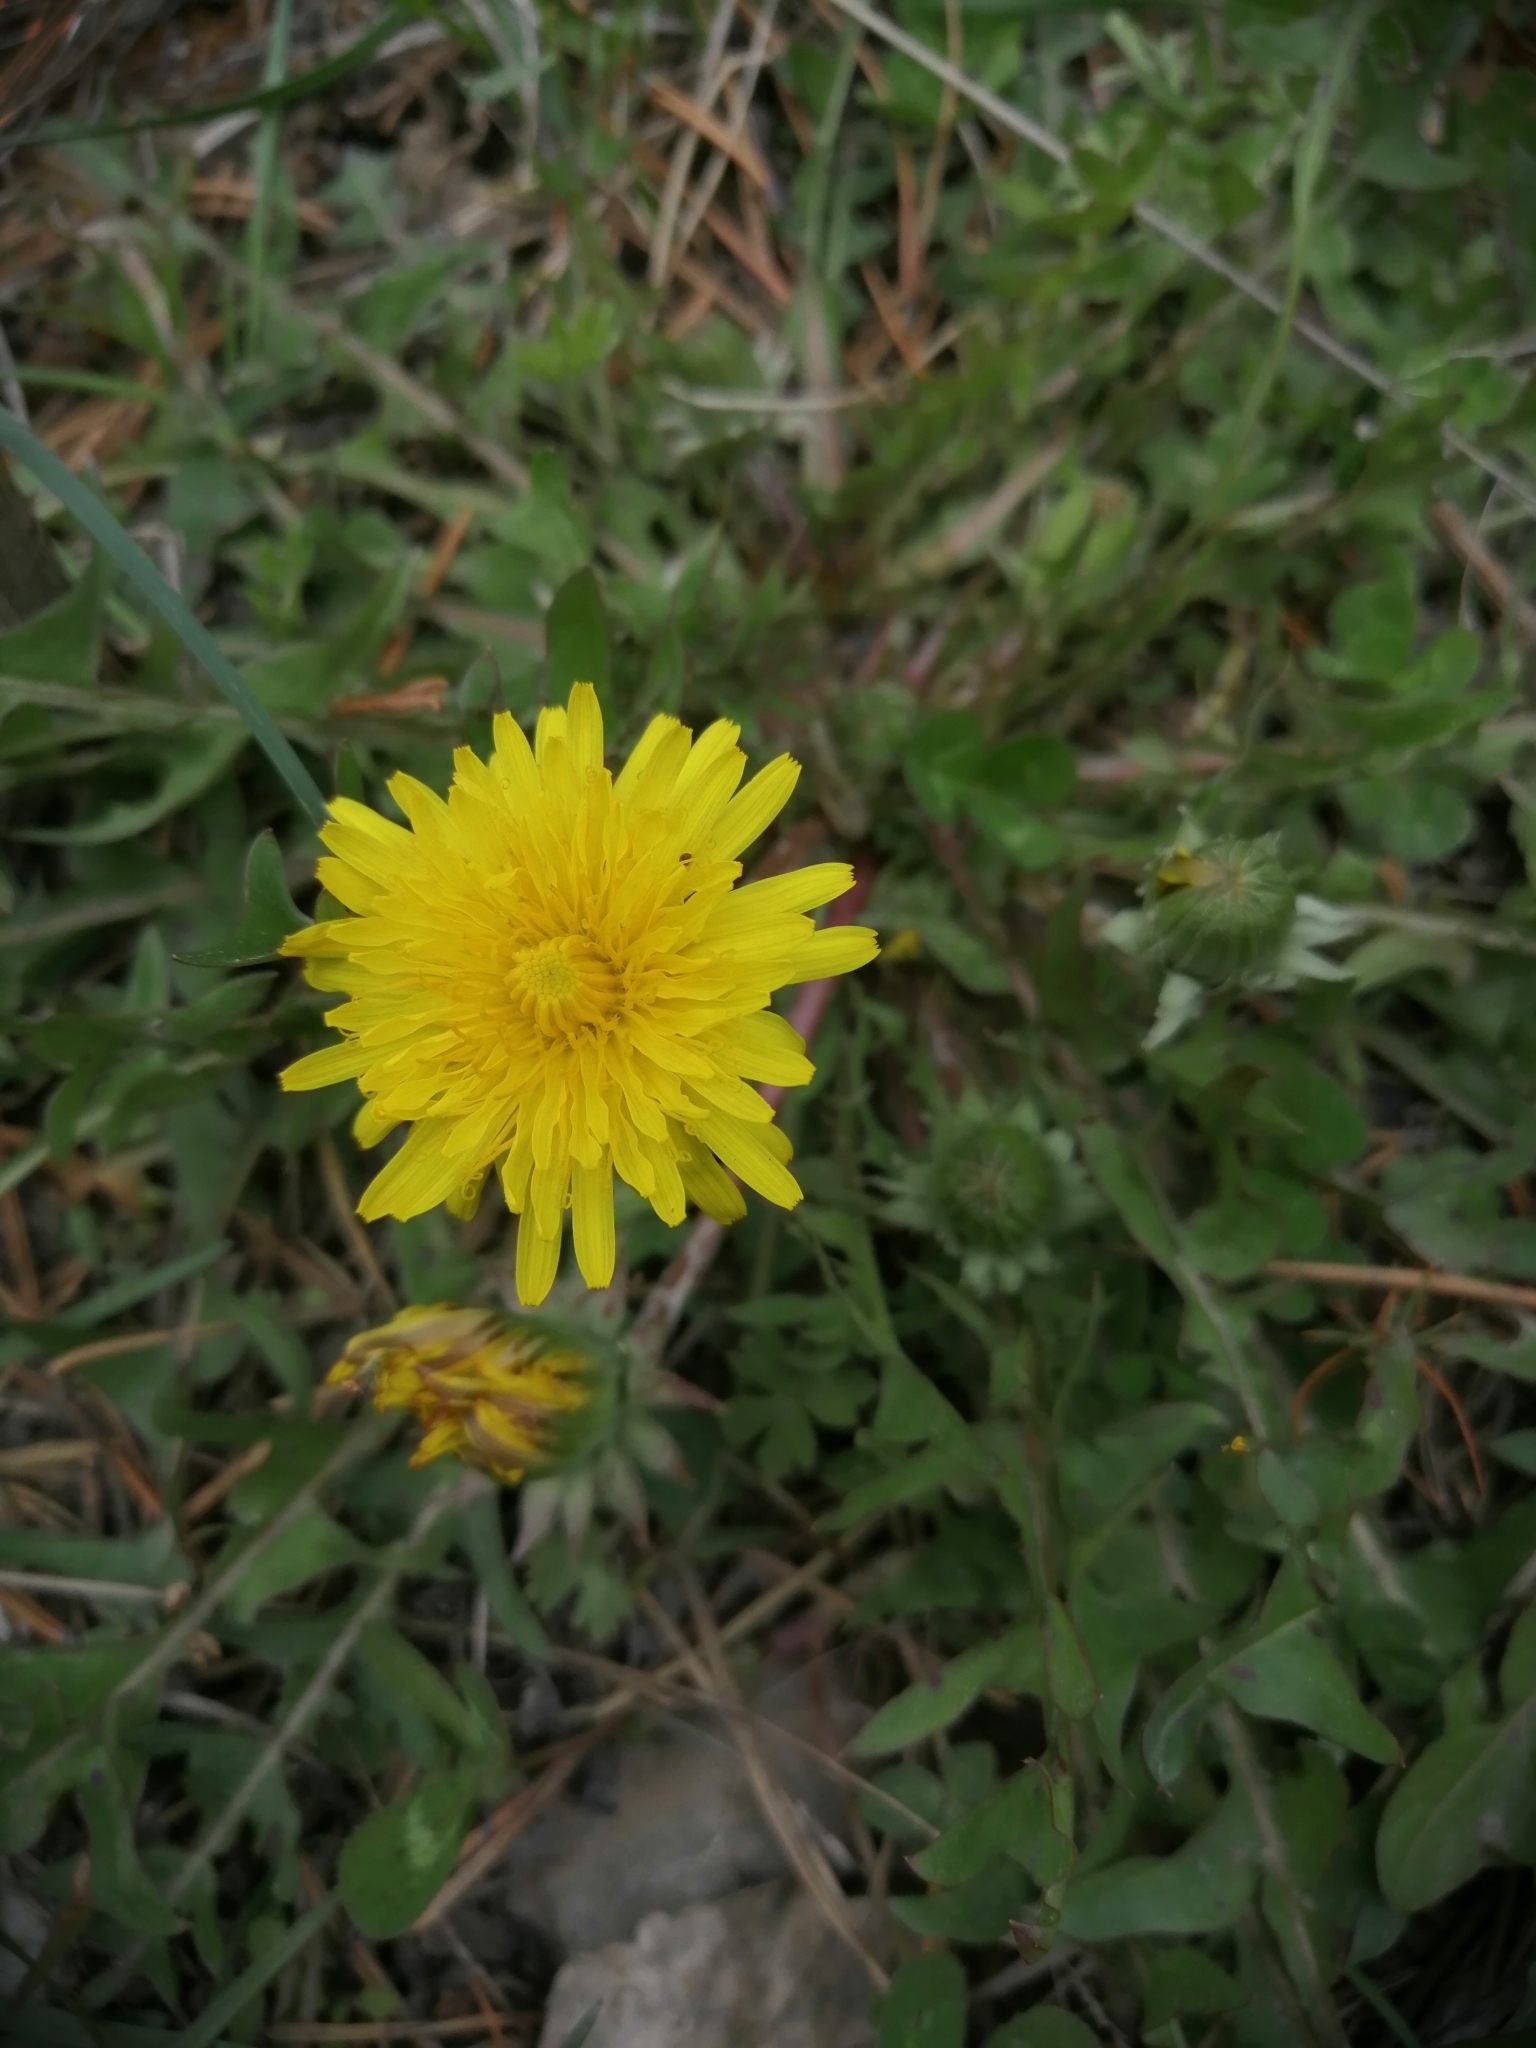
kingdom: Plantae
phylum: Tracheophyta
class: Magnoliopsida
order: Asterales
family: Asteraceae
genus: Taraxacum
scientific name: Taraxacum officinale
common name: Common dandelion
